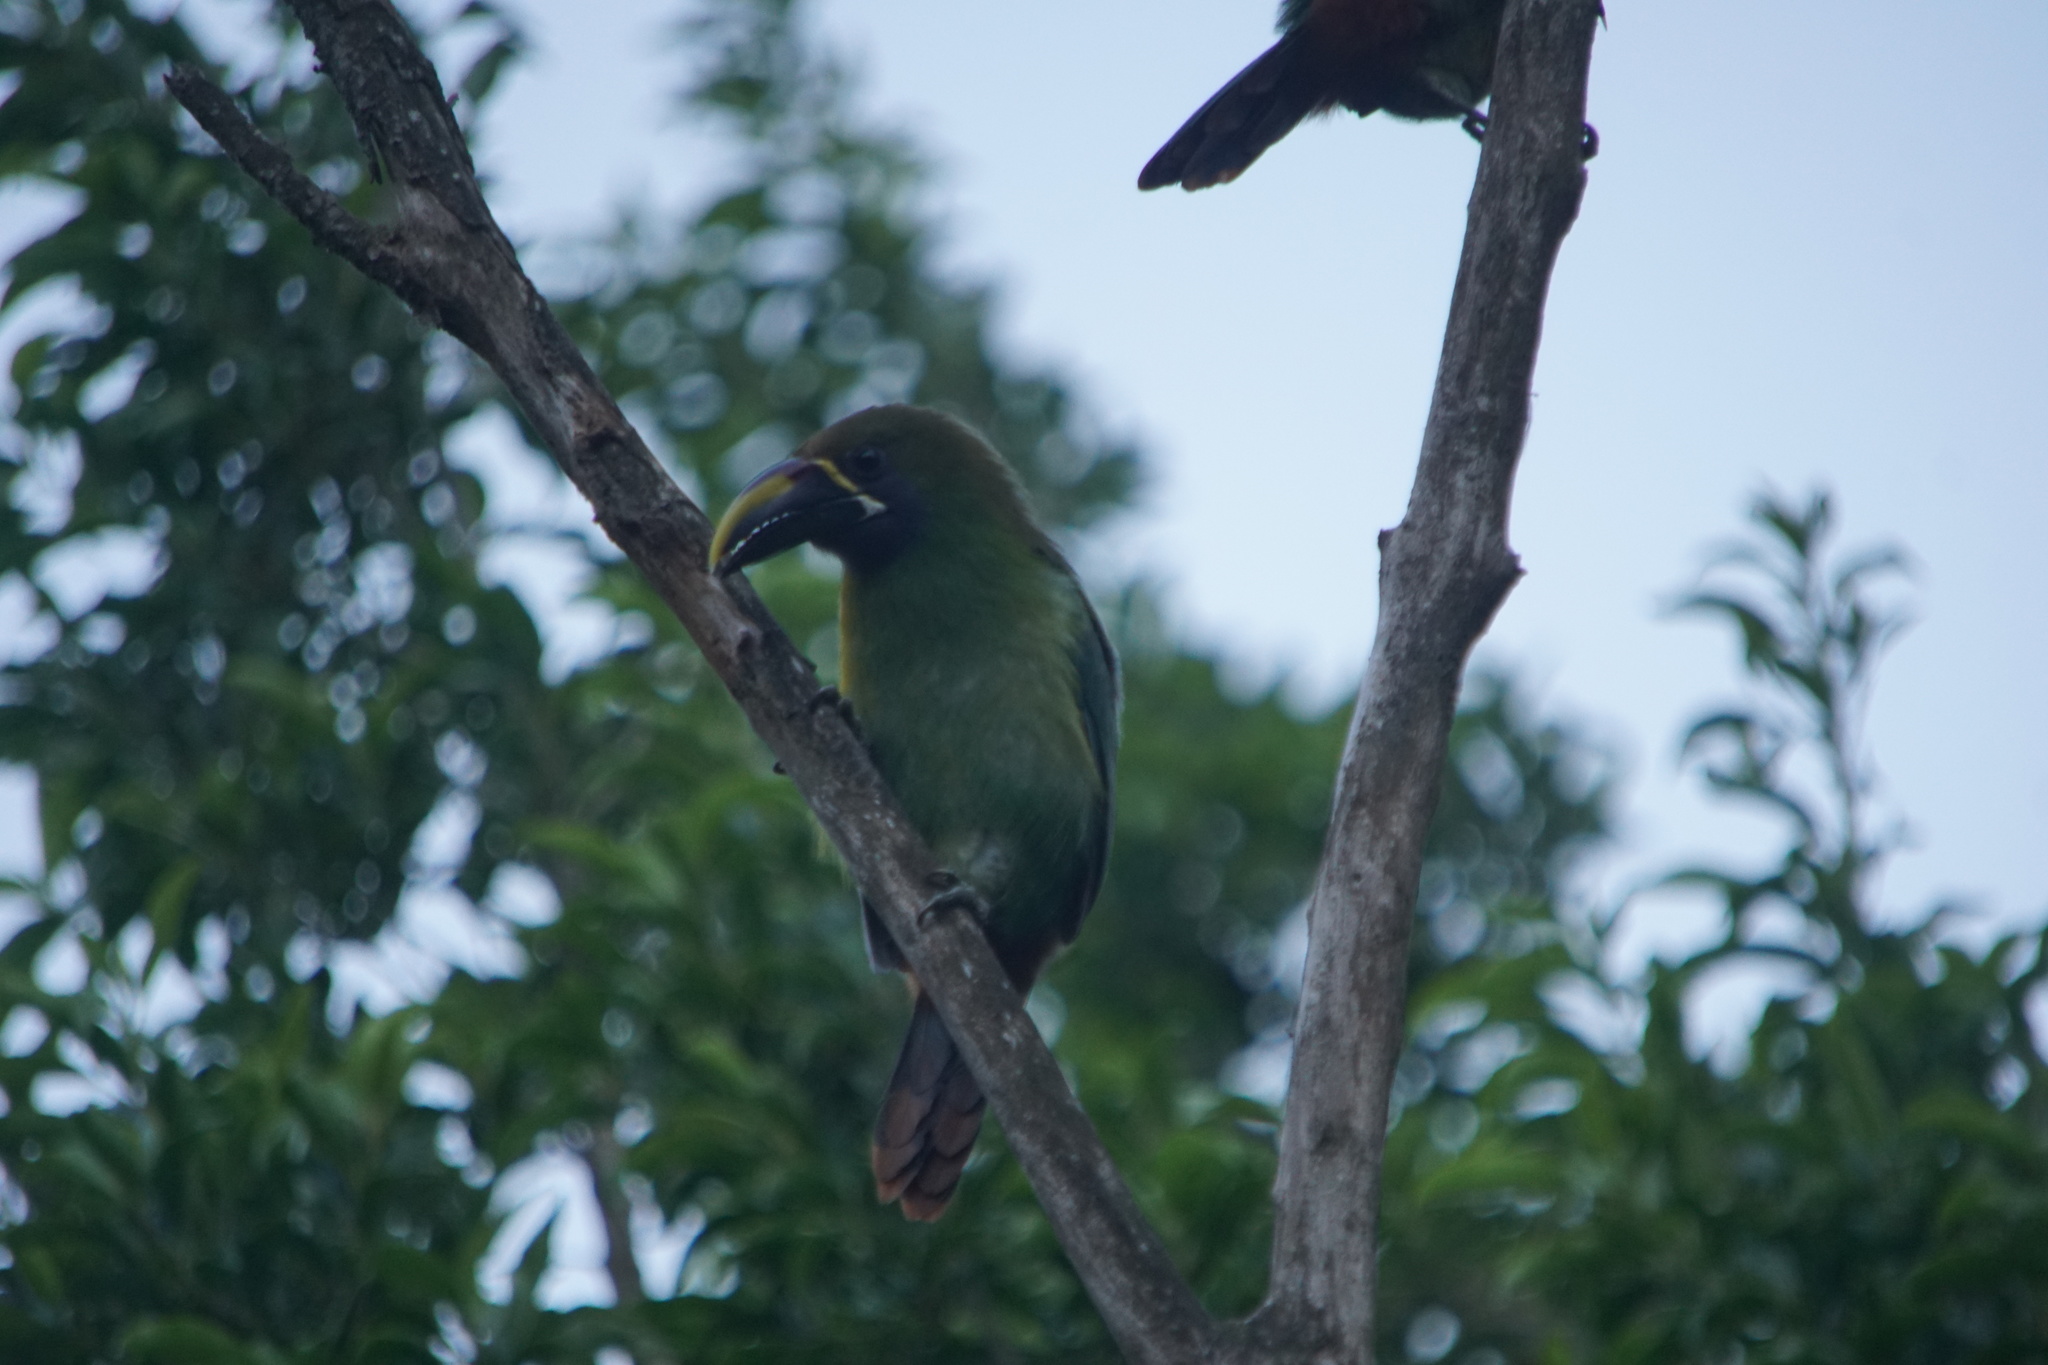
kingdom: Animalia
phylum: Chordata
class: Aves
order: Piciformes
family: Ramphastidae
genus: Aulacorhynchus
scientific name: Aulacorhynchus prasinus
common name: Emerald toucanet
